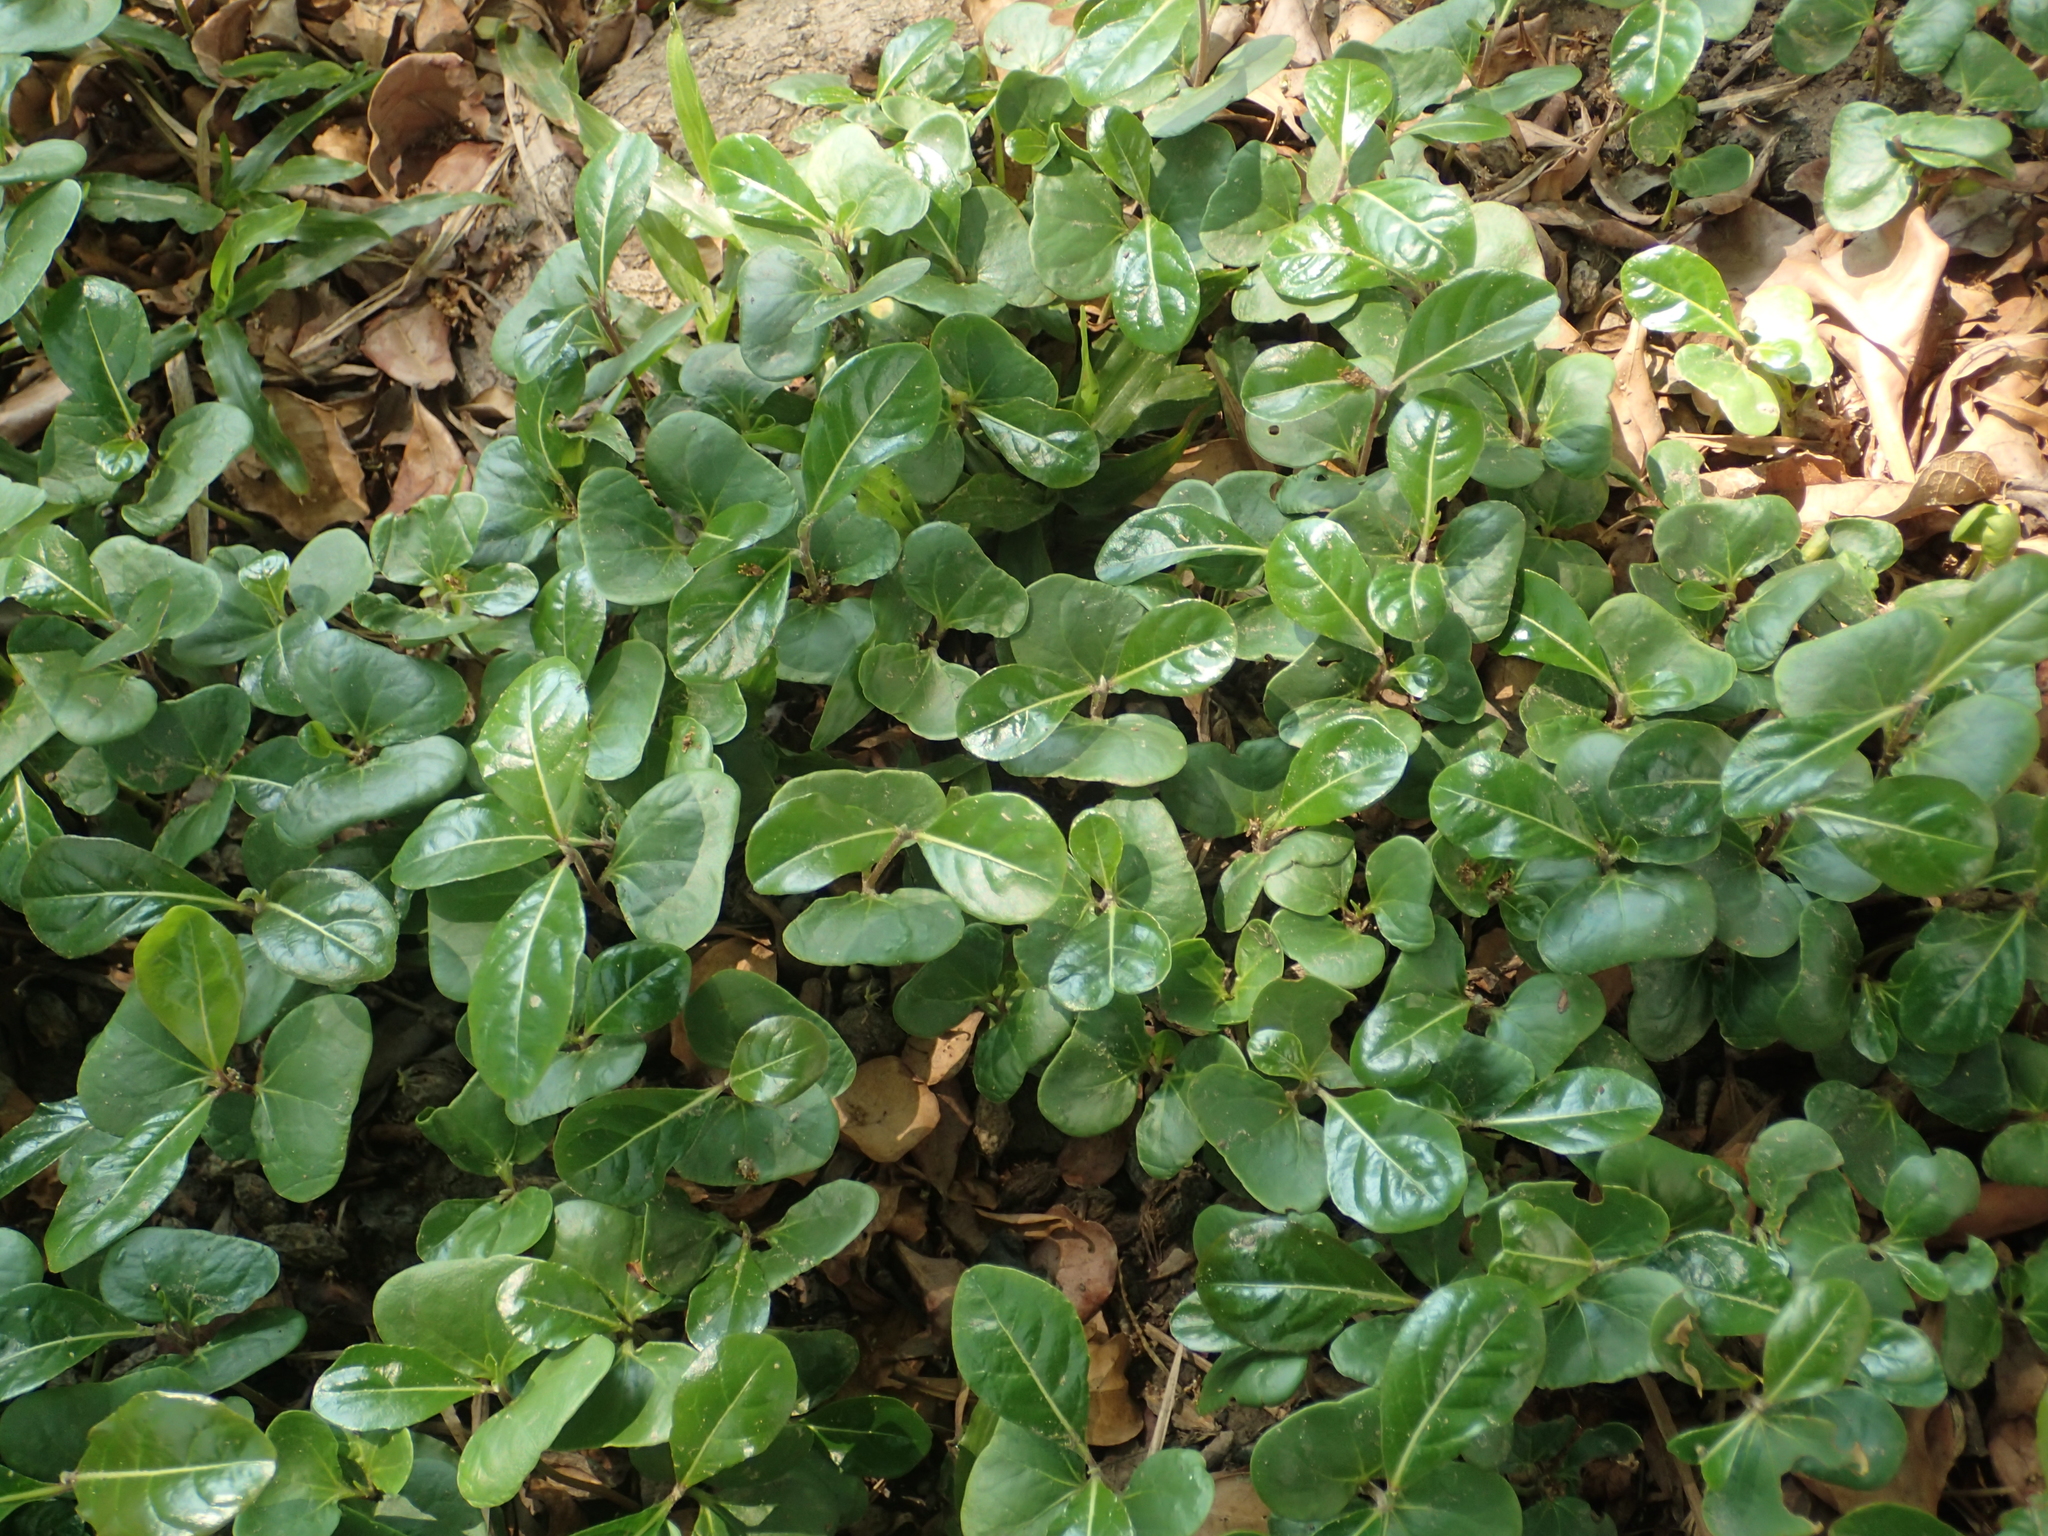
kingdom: Plantae
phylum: Tracheophyta
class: Magnoliopsida
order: Myrtales
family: Combretaceae
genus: Terminalia
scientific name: Terminalia neotaliala
